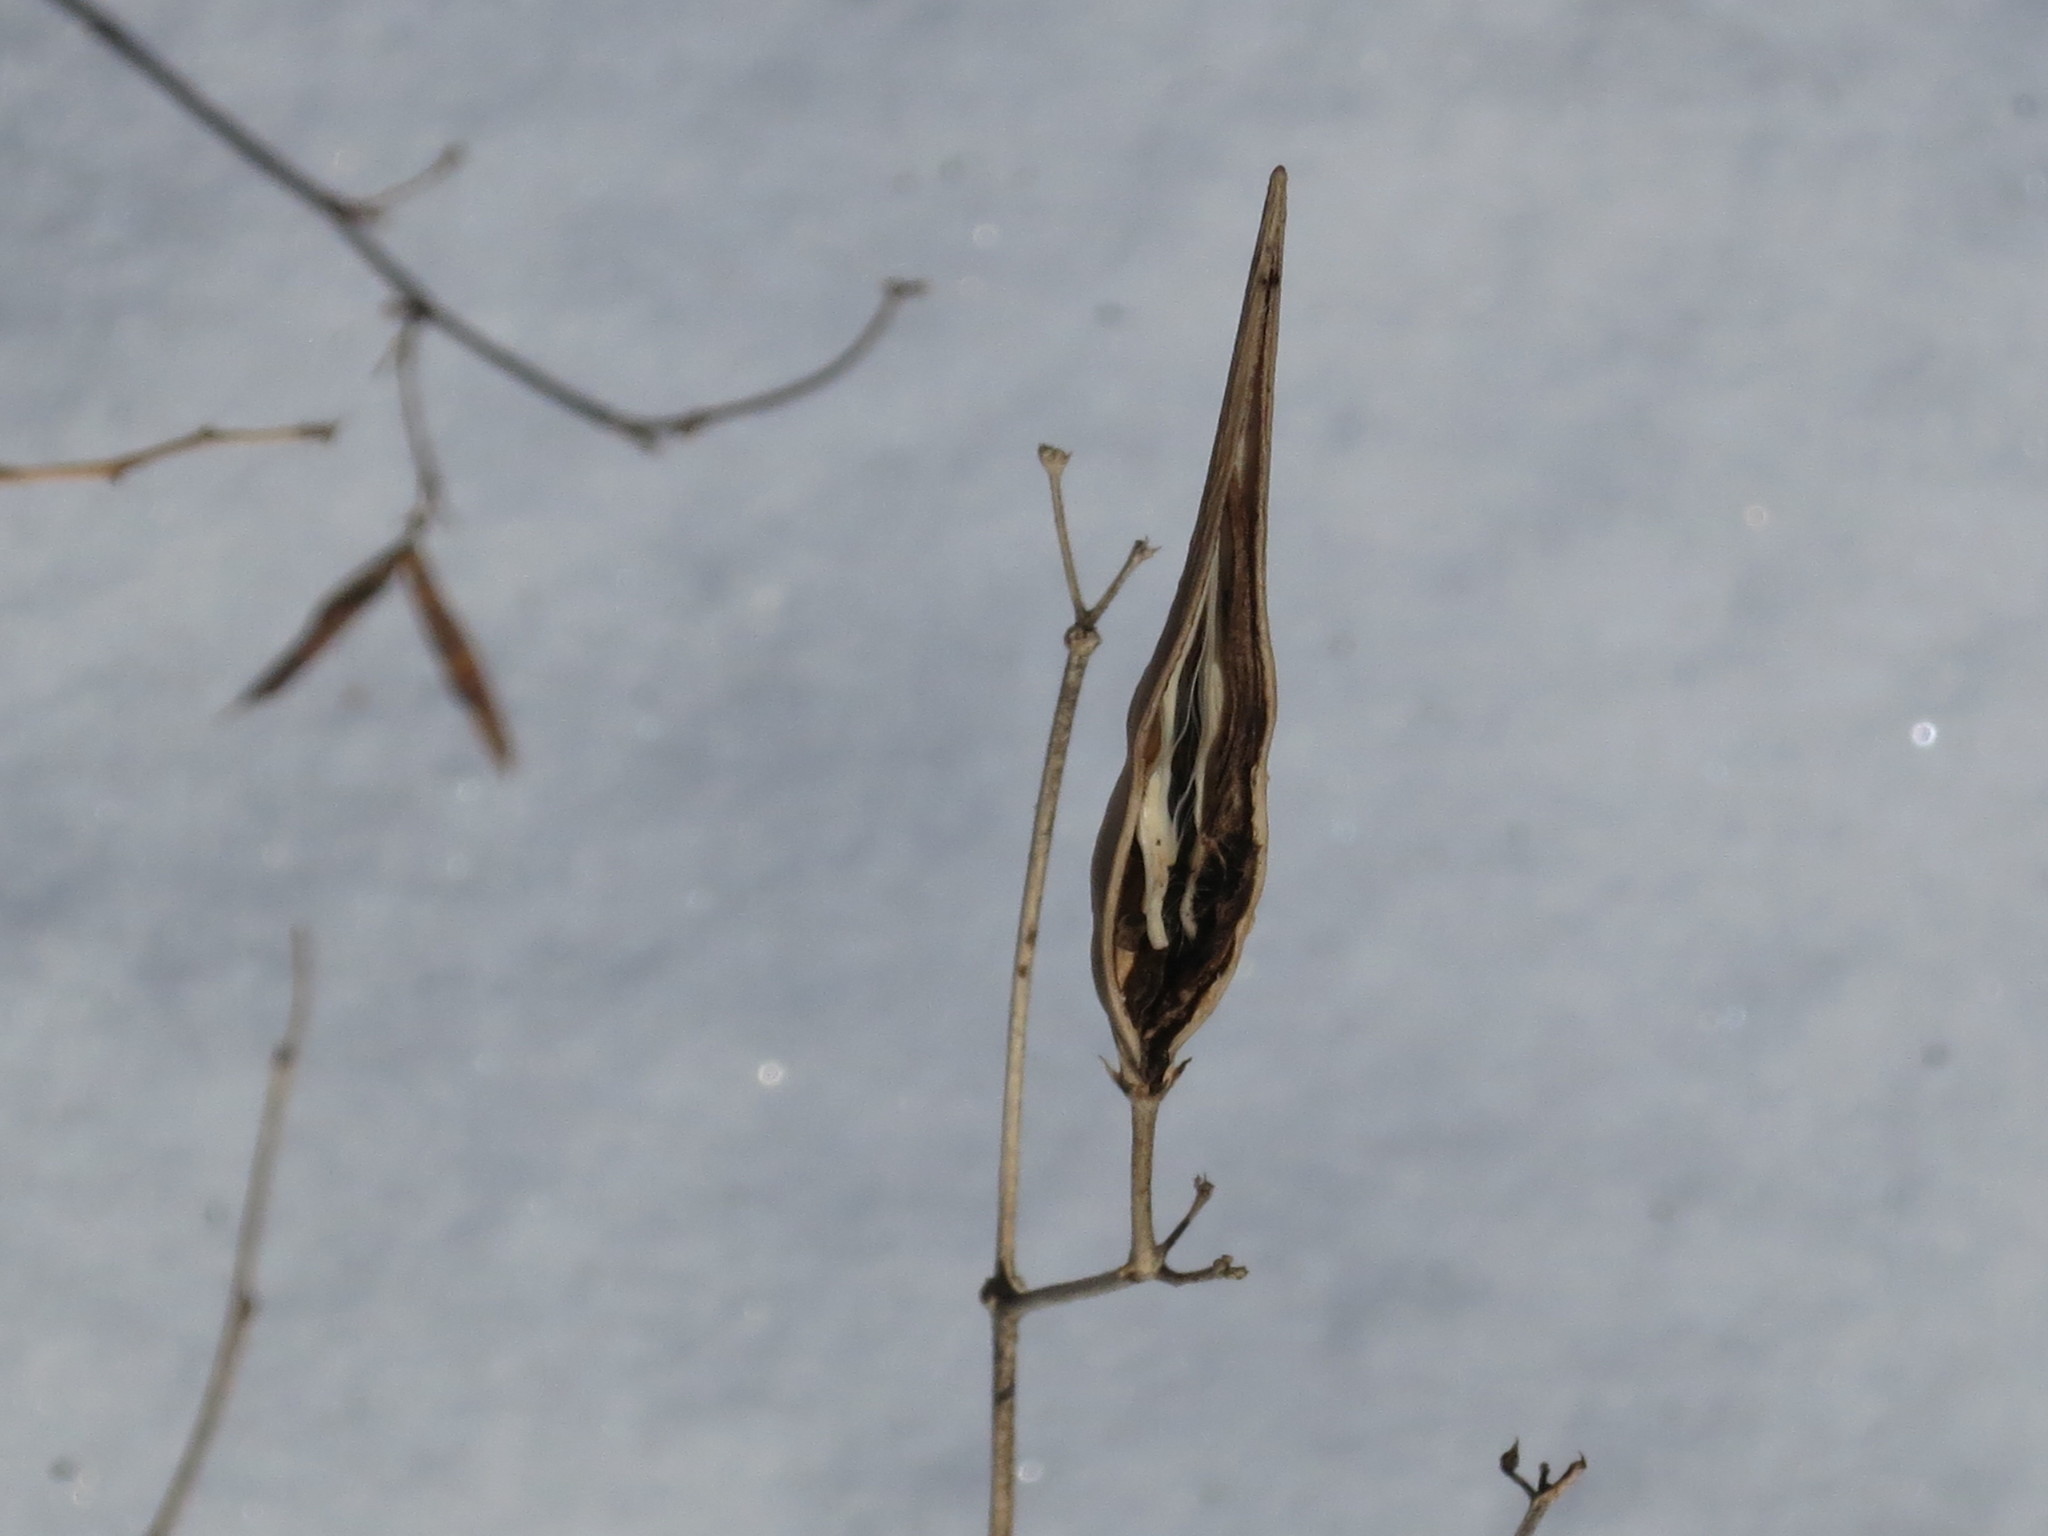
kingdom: Plantae
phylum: Tracheophyta
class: Magnoliopsida
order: Gentianales
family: Apocynaceae
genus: Vincetoxicum
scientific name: Vincetoxicum ascyrifolium
